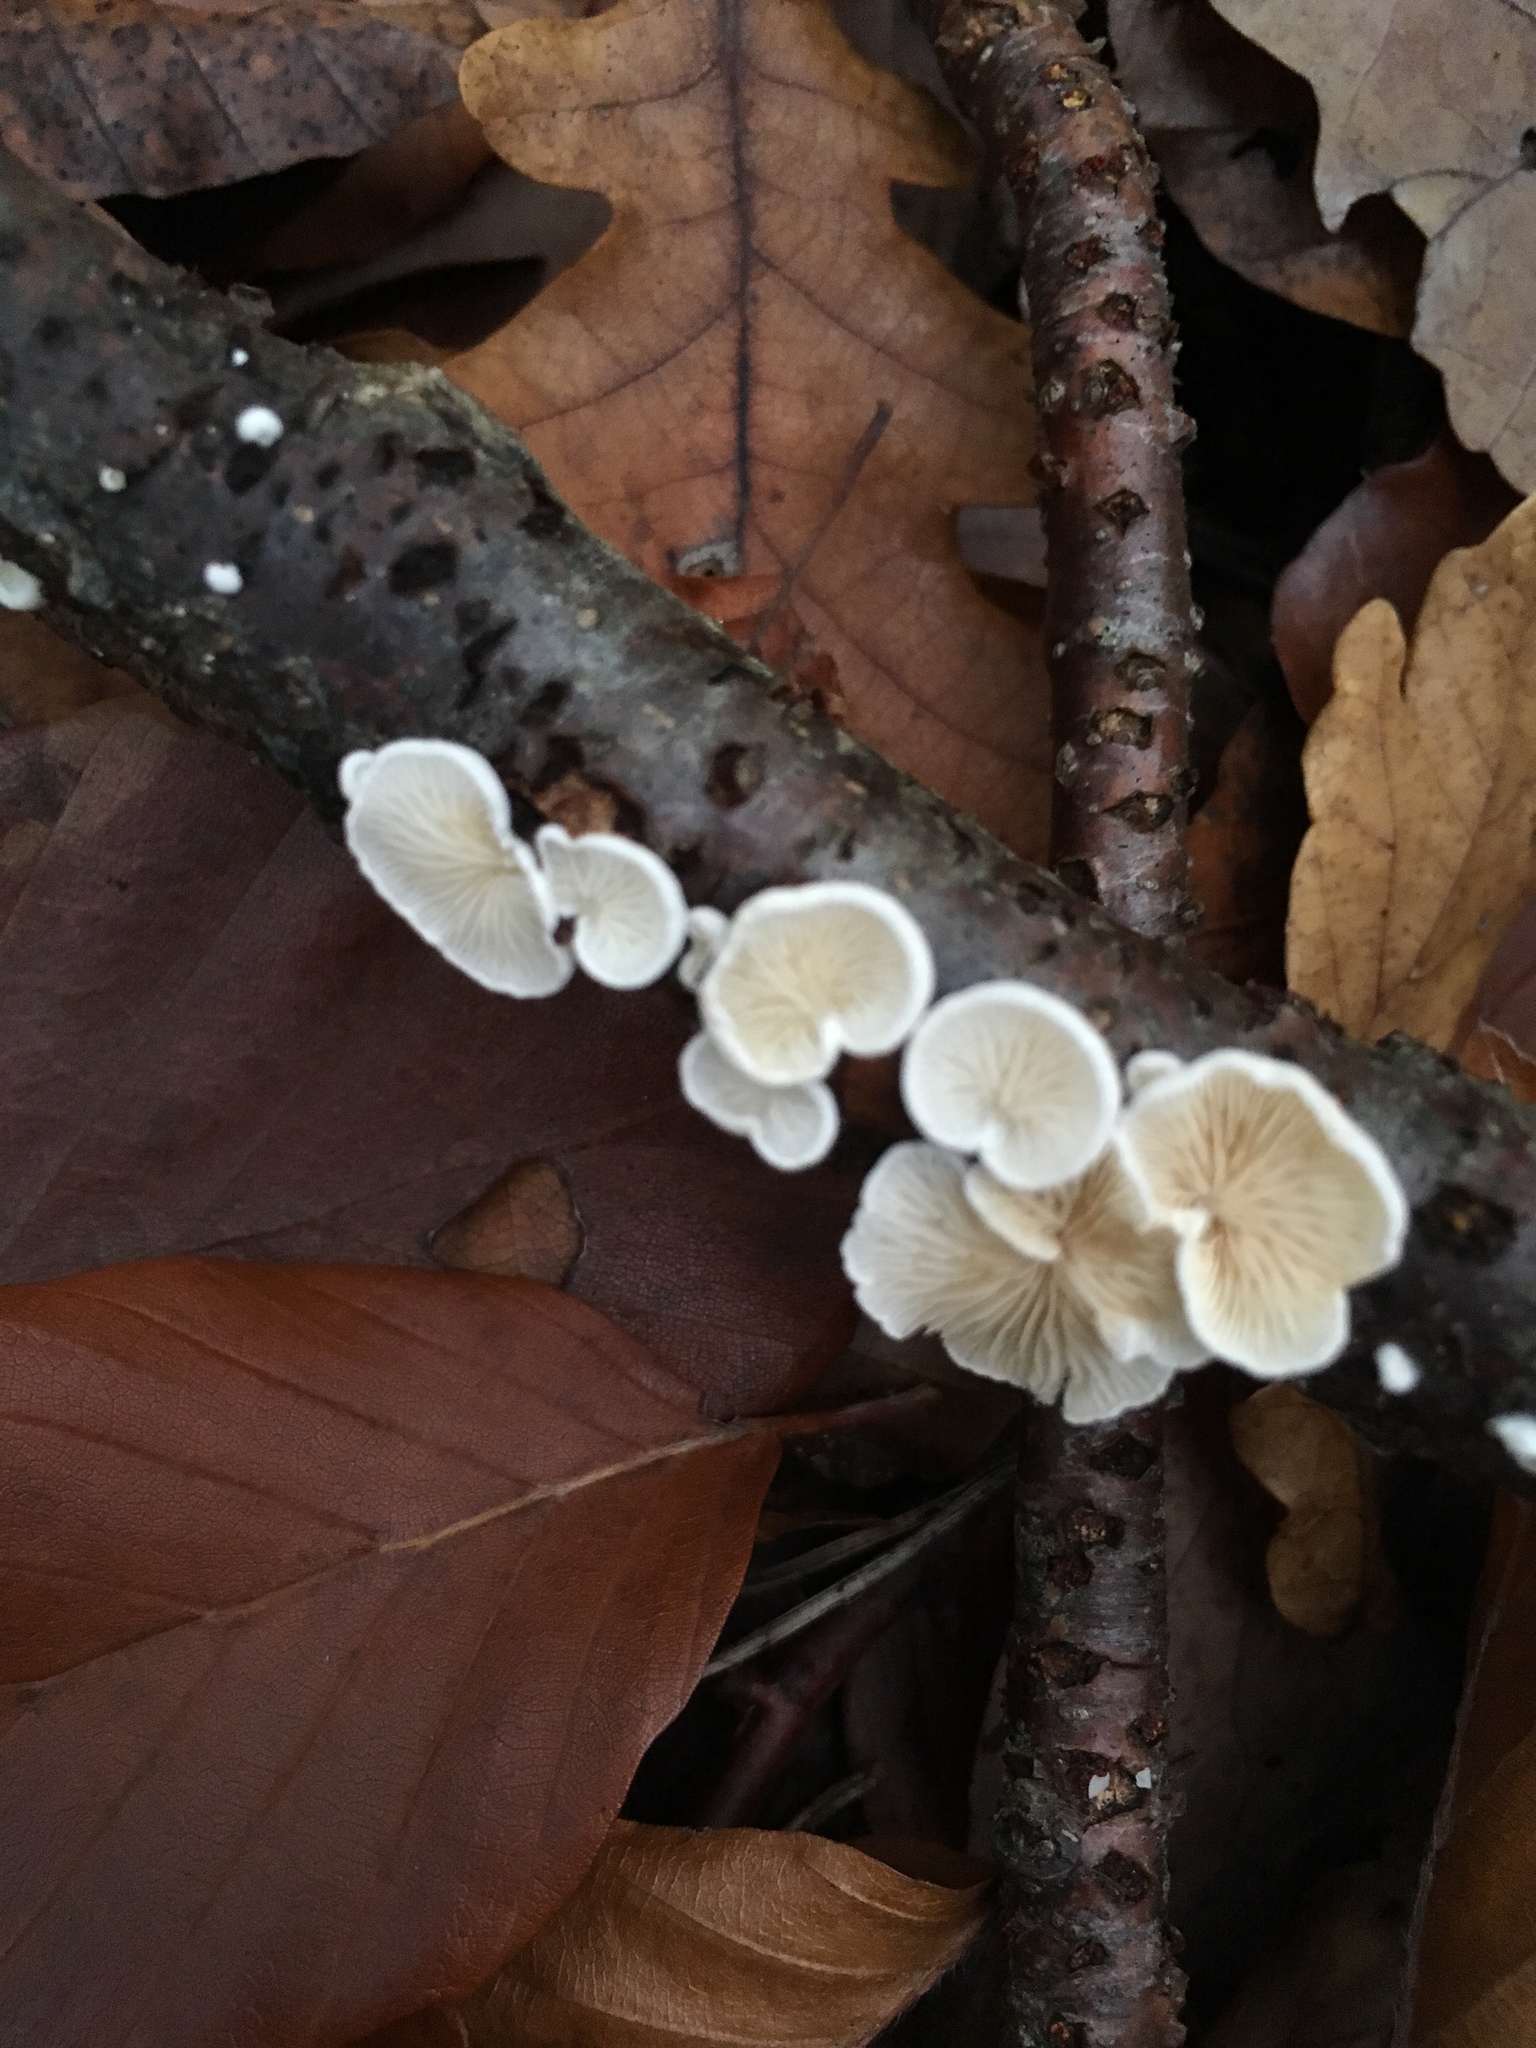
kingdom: Fungi
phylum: Basidiomycota
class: Agaricomycetes
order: Amylocorticiales
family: Amylocorticiaceae
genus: Plicaturopsis
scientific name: Plicaturopsis crispa
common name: Crimped gill
